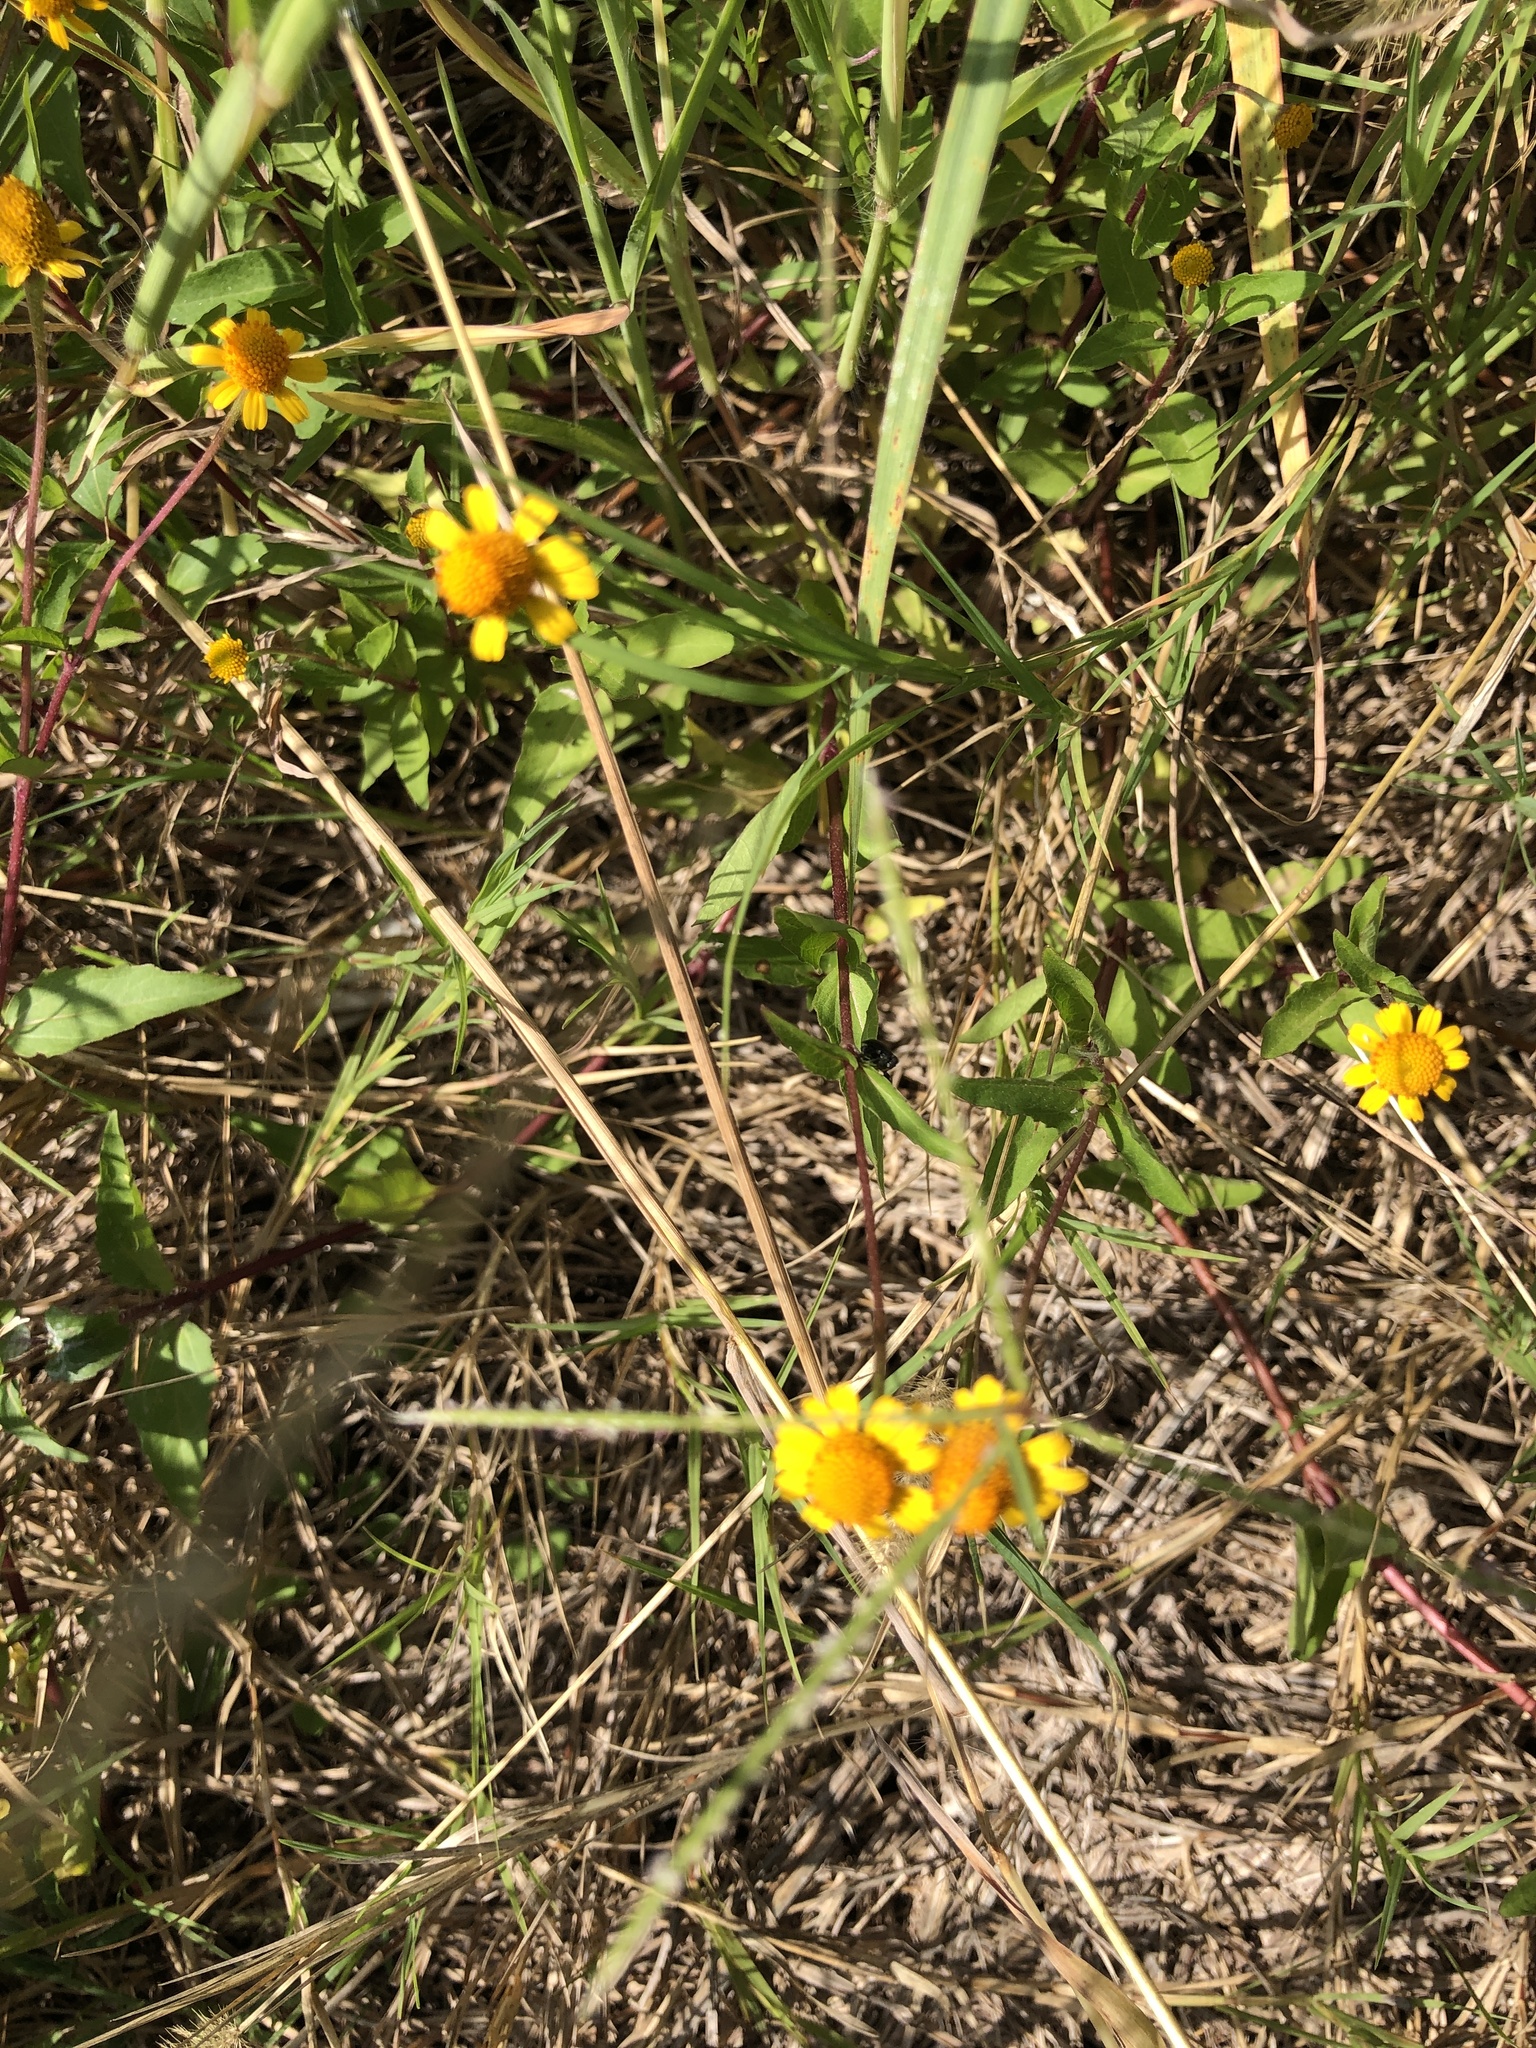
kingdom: Plantae
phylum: Tracheophyta
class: Magnoliopsida
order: Asterales
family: Asteraceae
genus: Acmella
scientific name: Acmella repens
